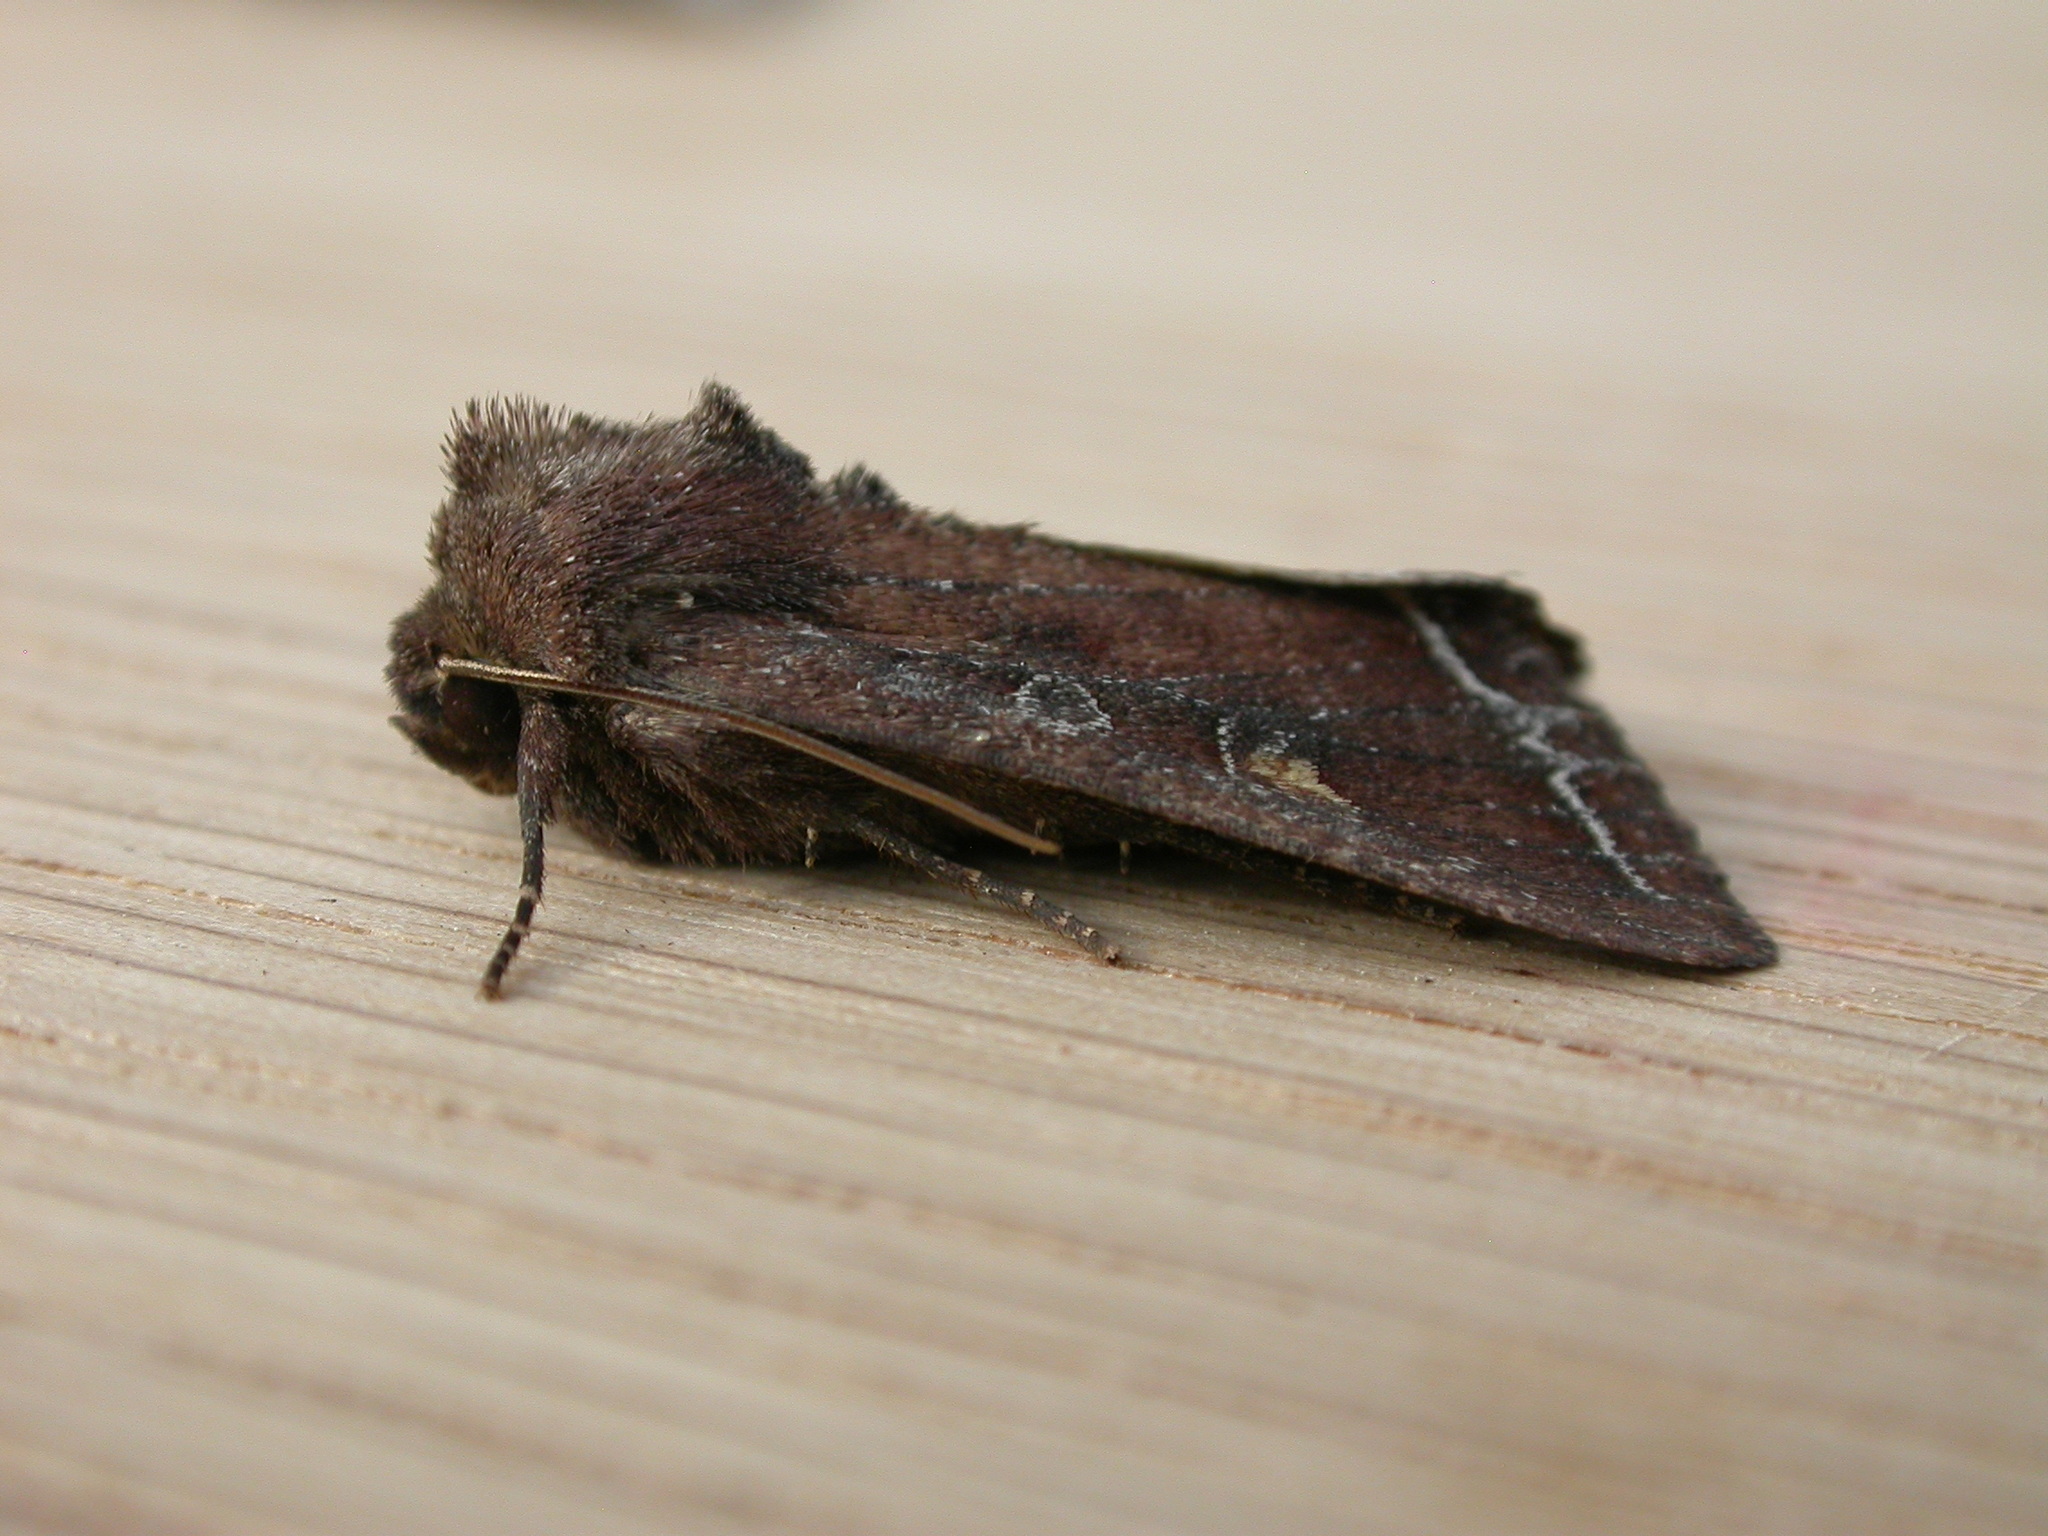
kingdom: Animalia
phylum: Arthropoda
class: Insecta
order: Lepidoptera
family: Noctuidae
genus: Lacanobia
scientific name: Lacanobia oleracea
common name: Bright-line brown-eye
